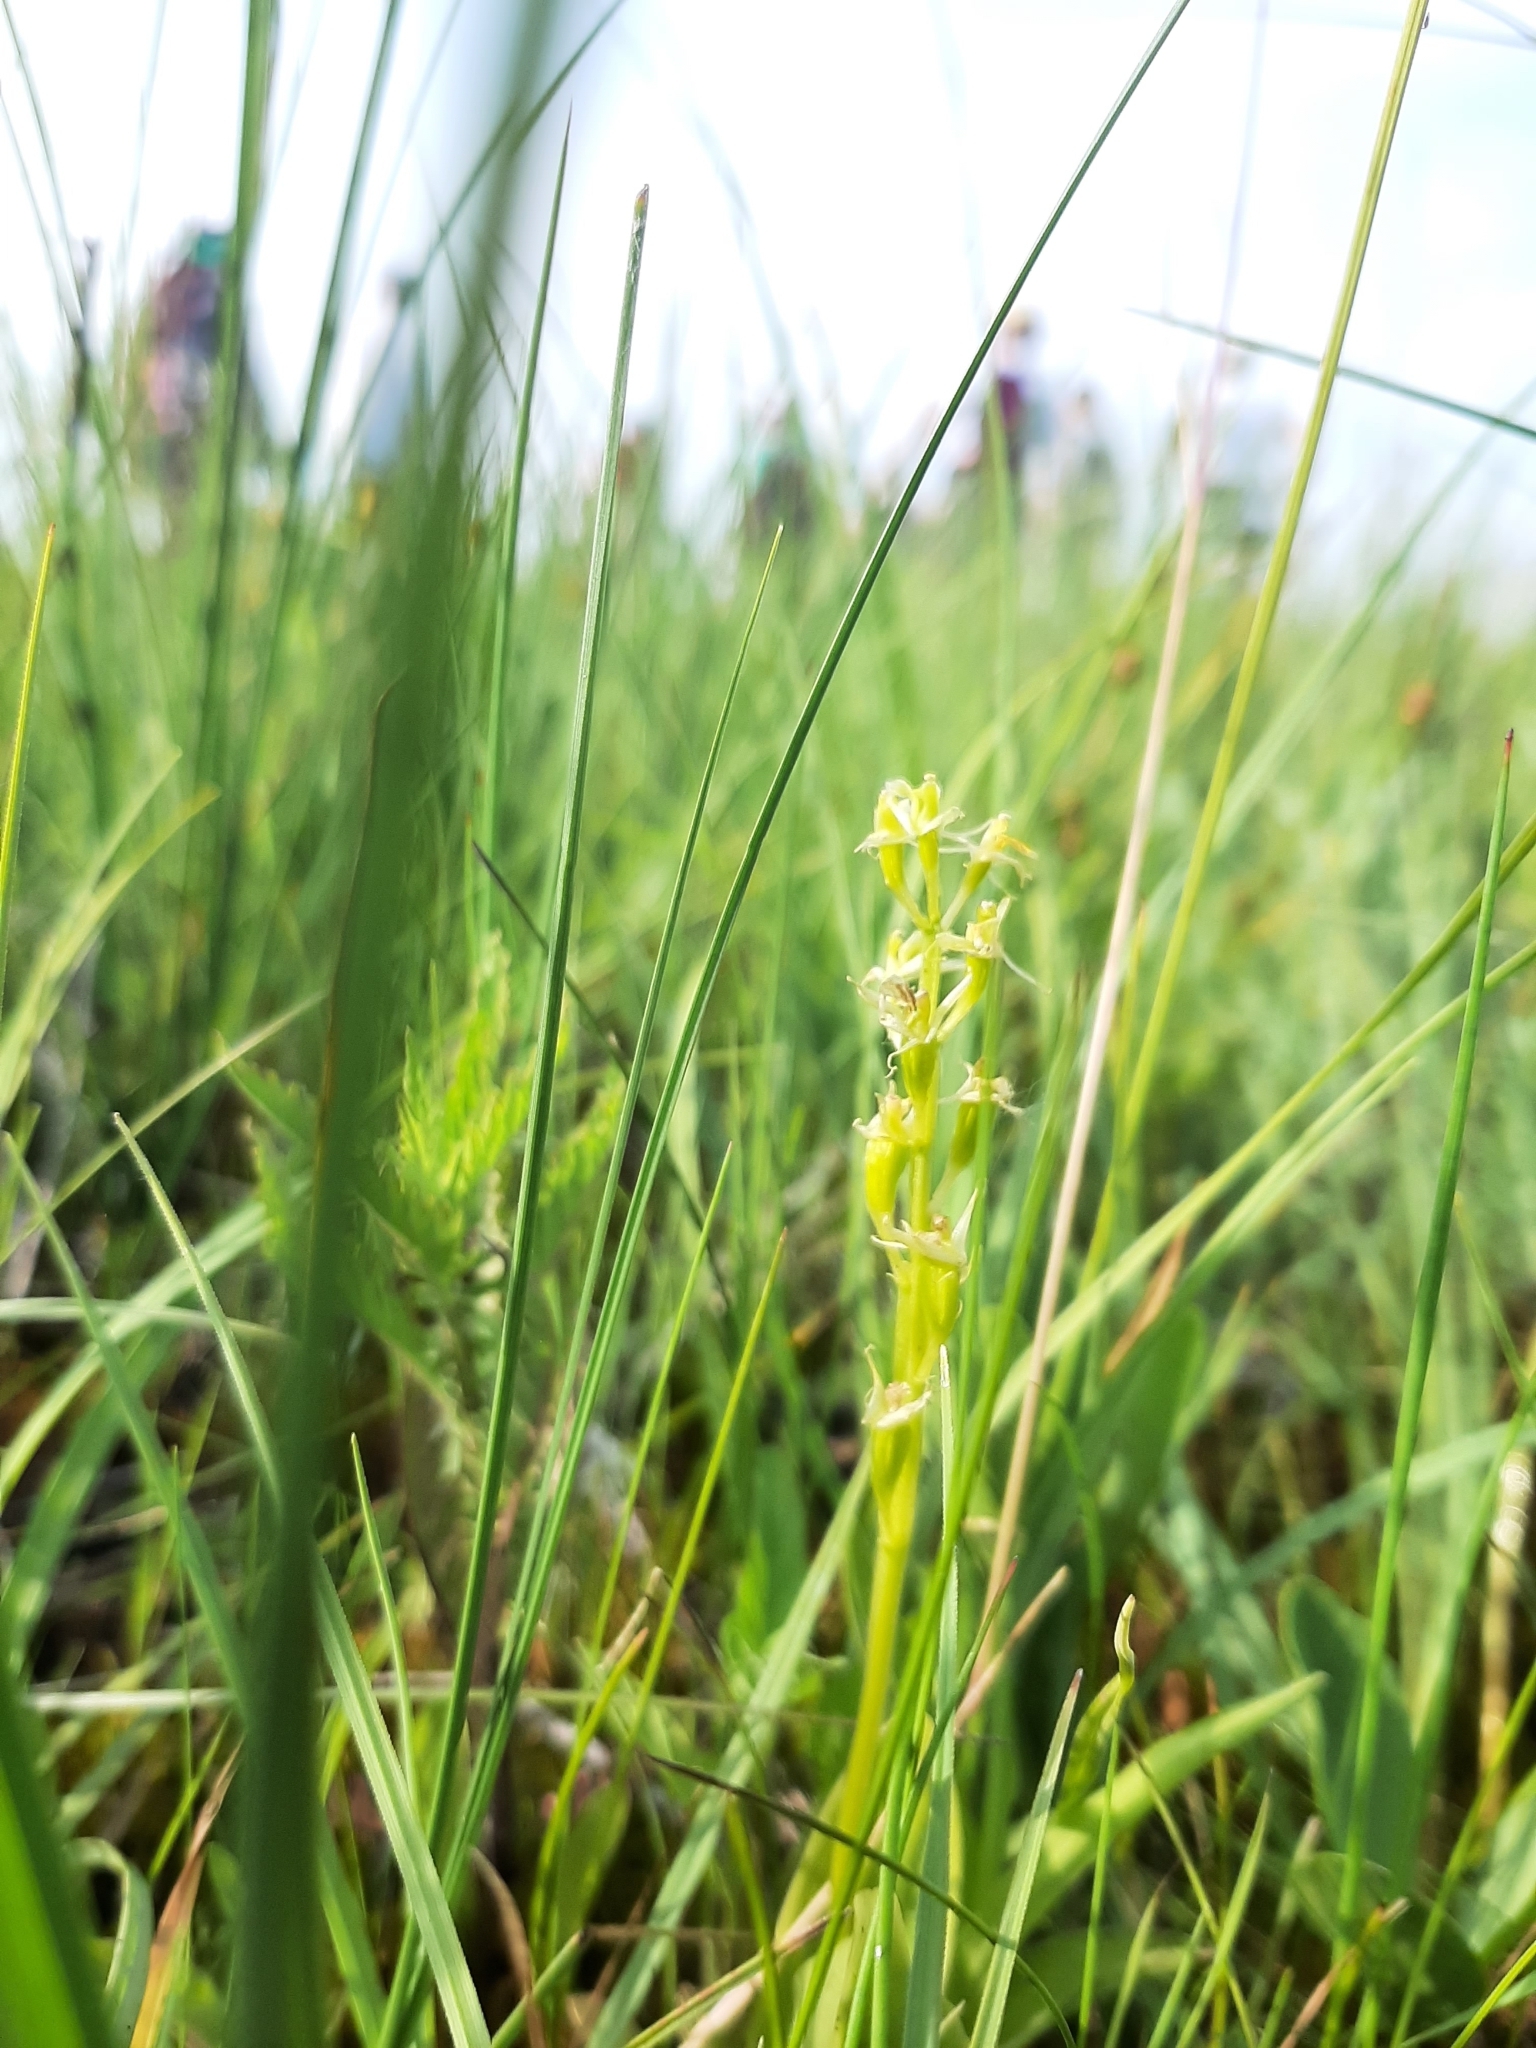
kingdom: Animalia
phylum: Arthropoda
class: Insecta
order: Coleoptera
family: Curculionidae
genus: Liparis
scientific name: Liparis loeselii
